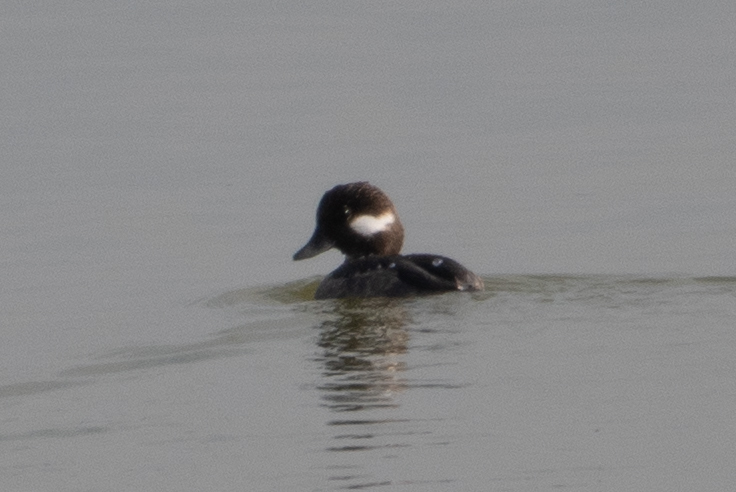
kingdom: Animalia
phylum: Chordata
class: Aves
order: Anseriformes
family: Anatidae
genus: Bucephala
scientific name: Bucephala albeola
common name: Bufflehead
